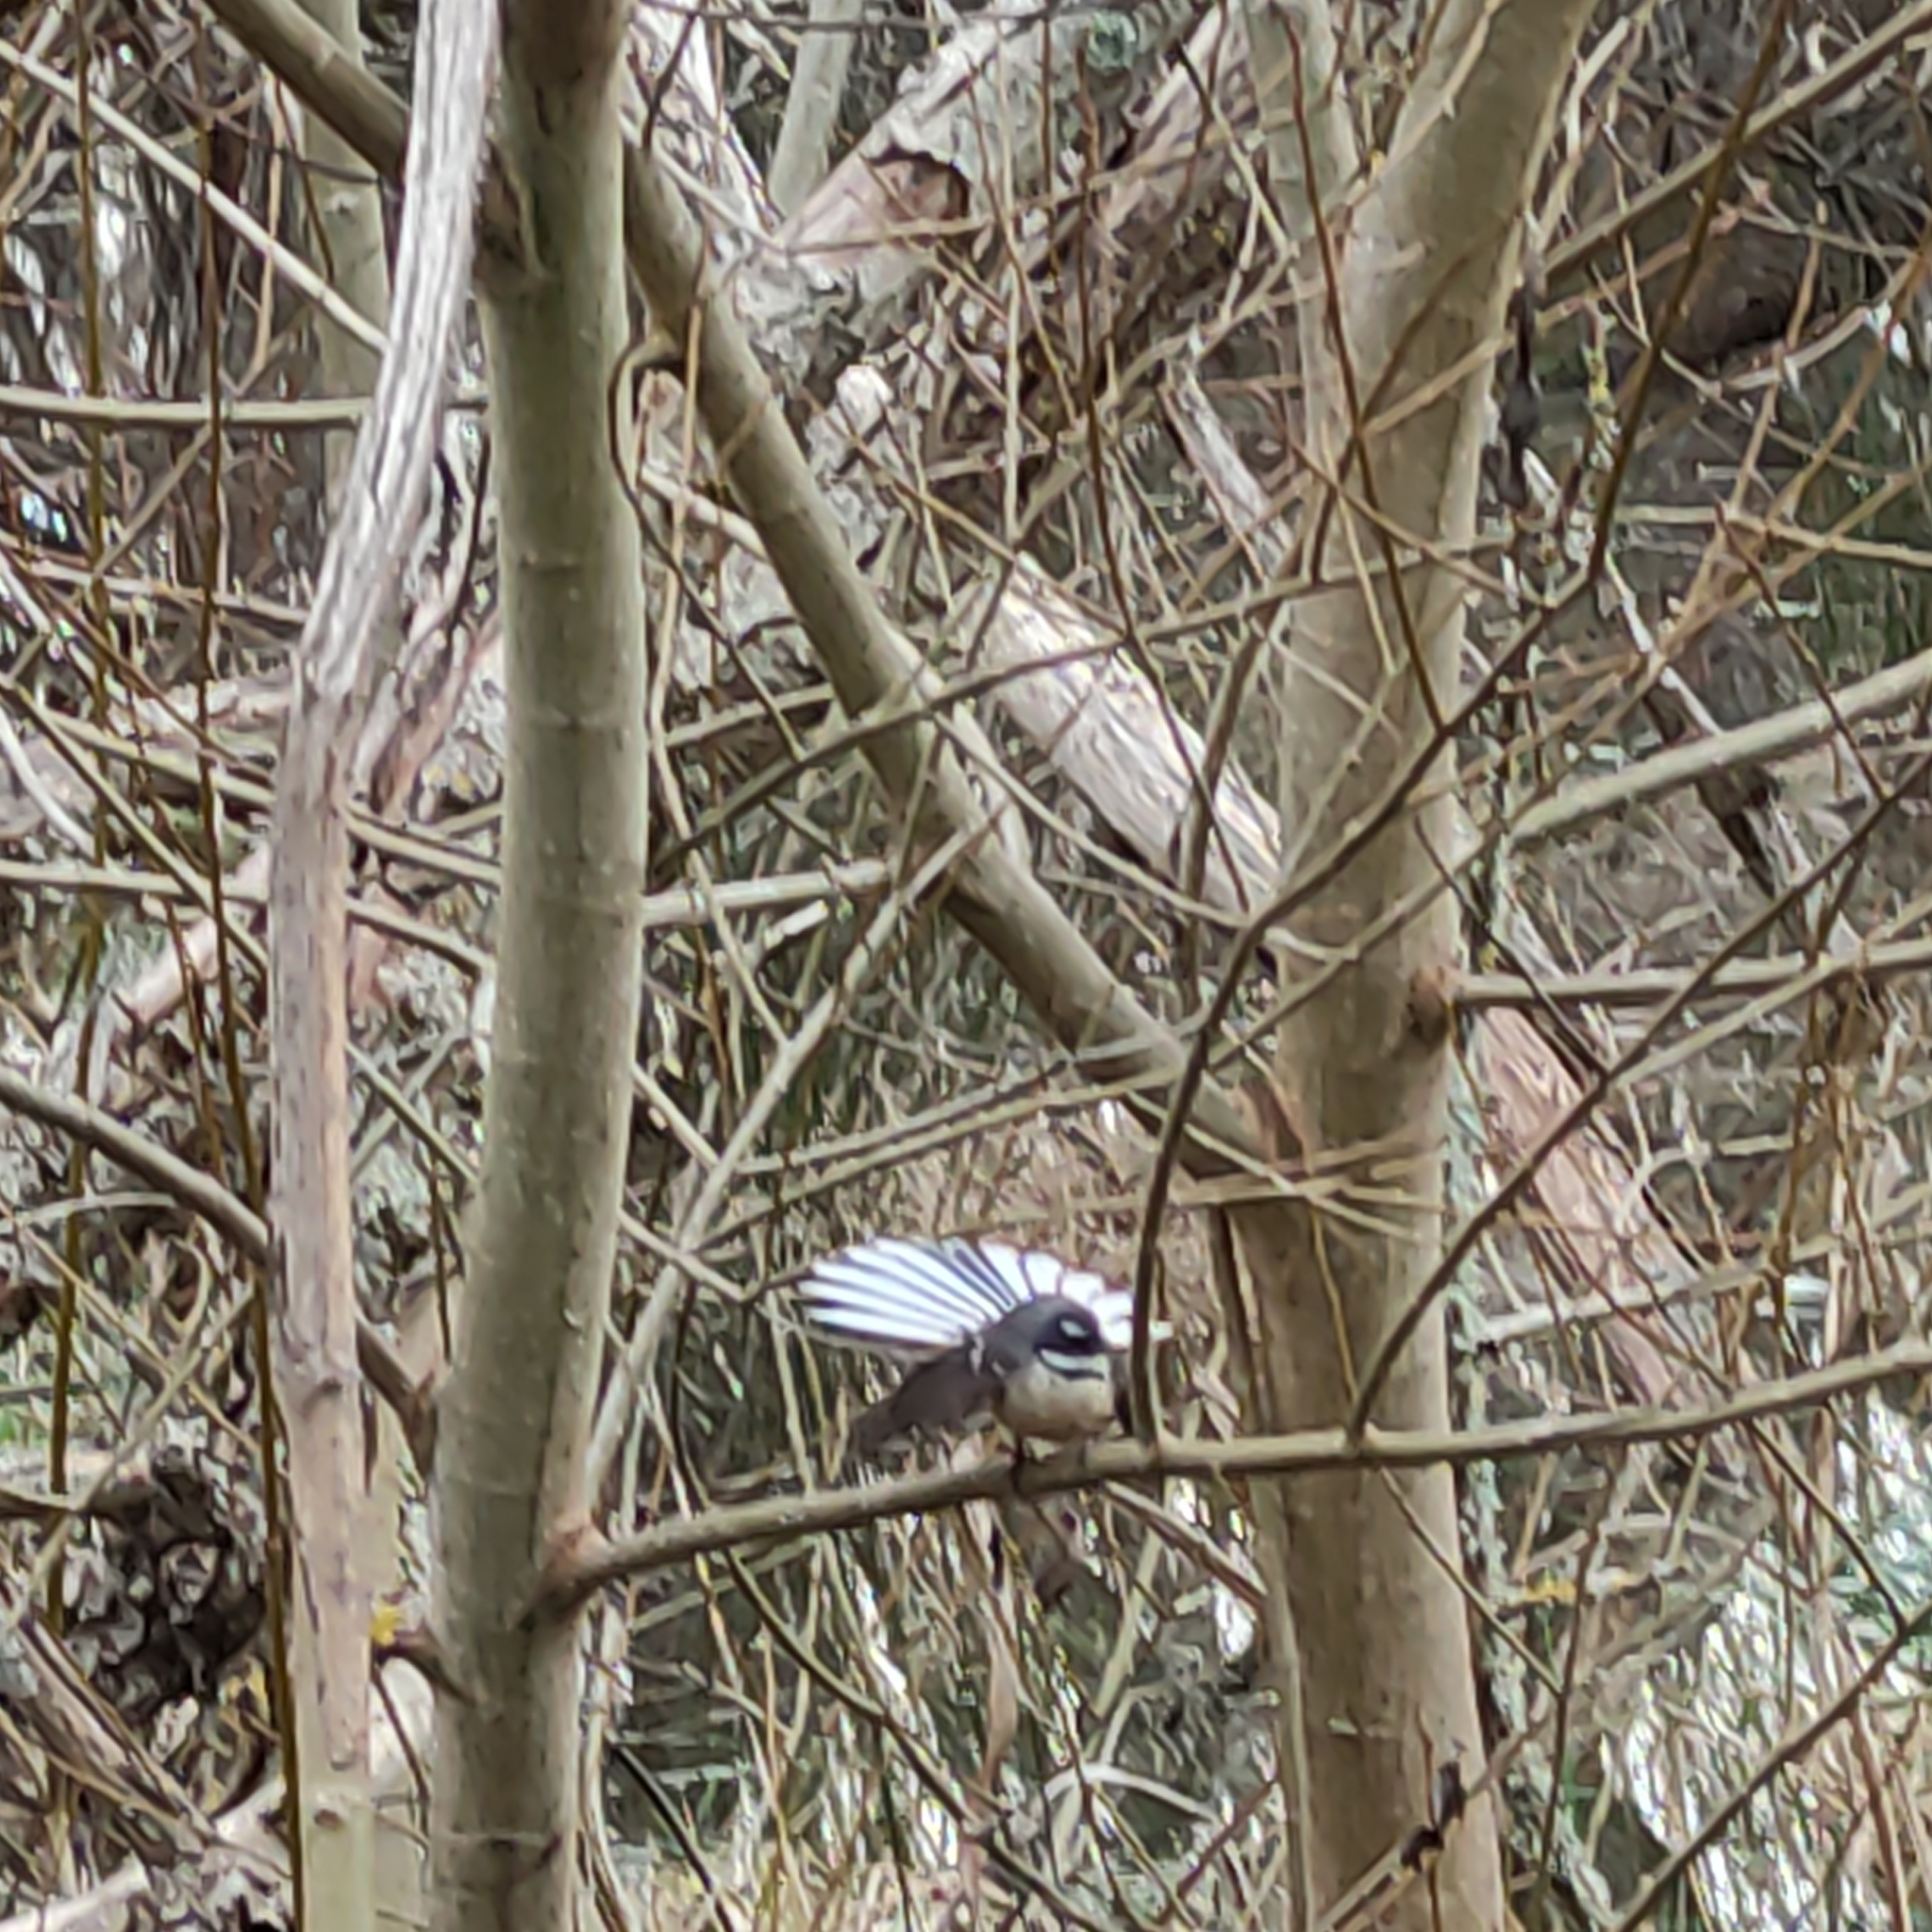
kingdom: Animalia
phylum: Chordata
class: Aves
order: Passeriformes
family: Rhipiduridae
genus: Rhipidura
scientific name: Rhipidura fuliginosa
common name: New zealand fantail
